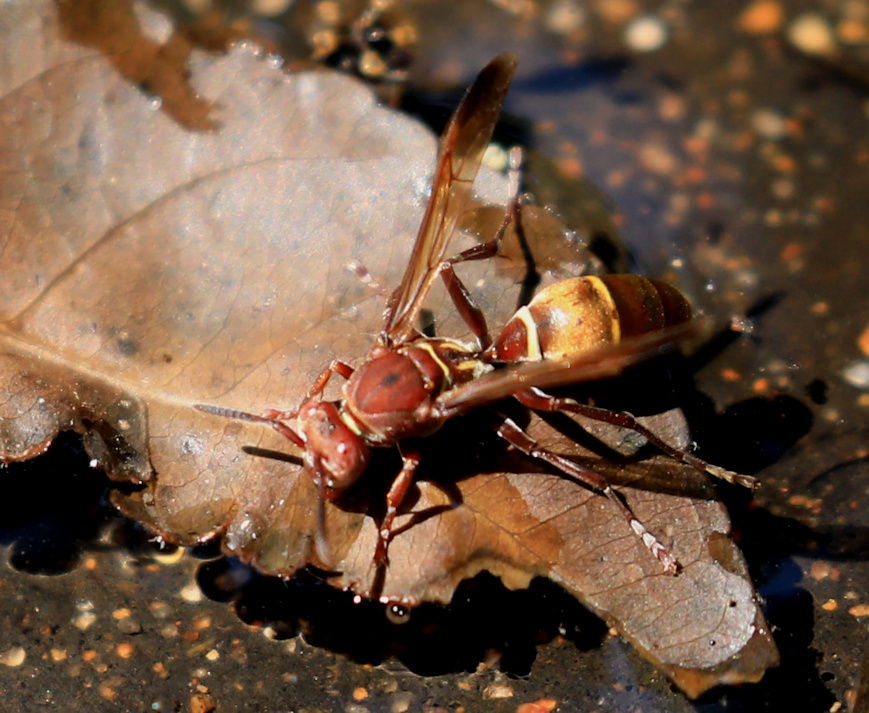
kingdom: Animalia
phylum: Arthropoda
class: Insecta
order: Hymenoptera
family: Eumenidae
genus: Polistes
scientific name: Polistes africanus
